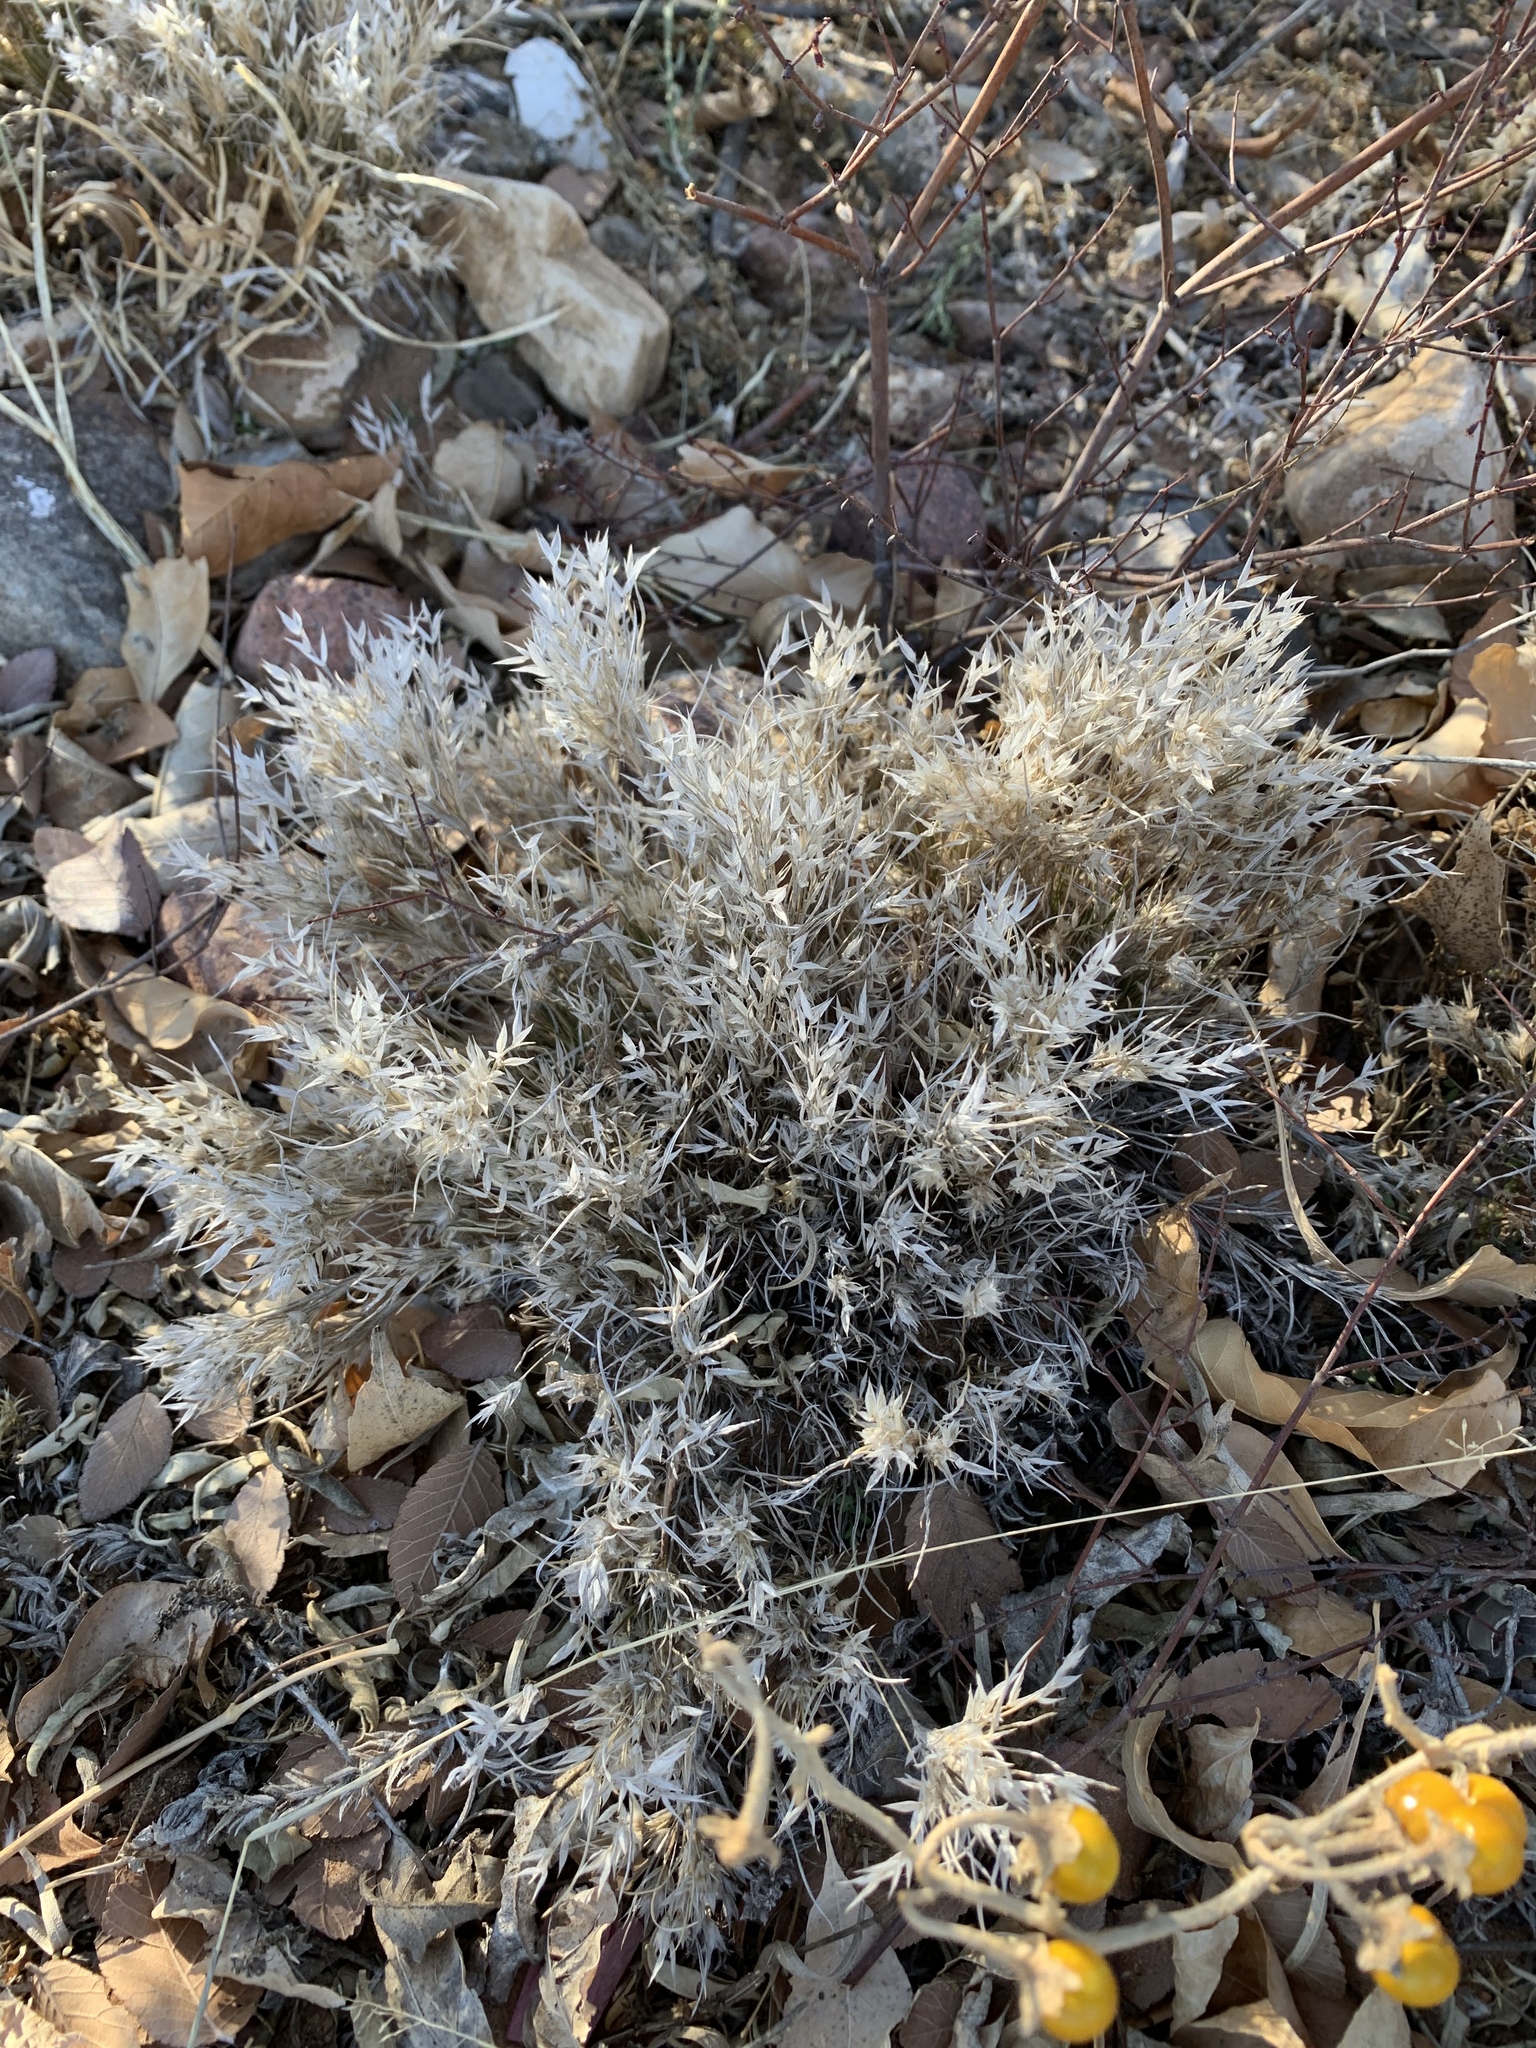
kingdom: Plantae
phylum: Tracheophyta
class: Liliopsida
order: Poales
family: Poaceae
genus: Dasyochloa
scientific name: Dasyochloa pulchella
